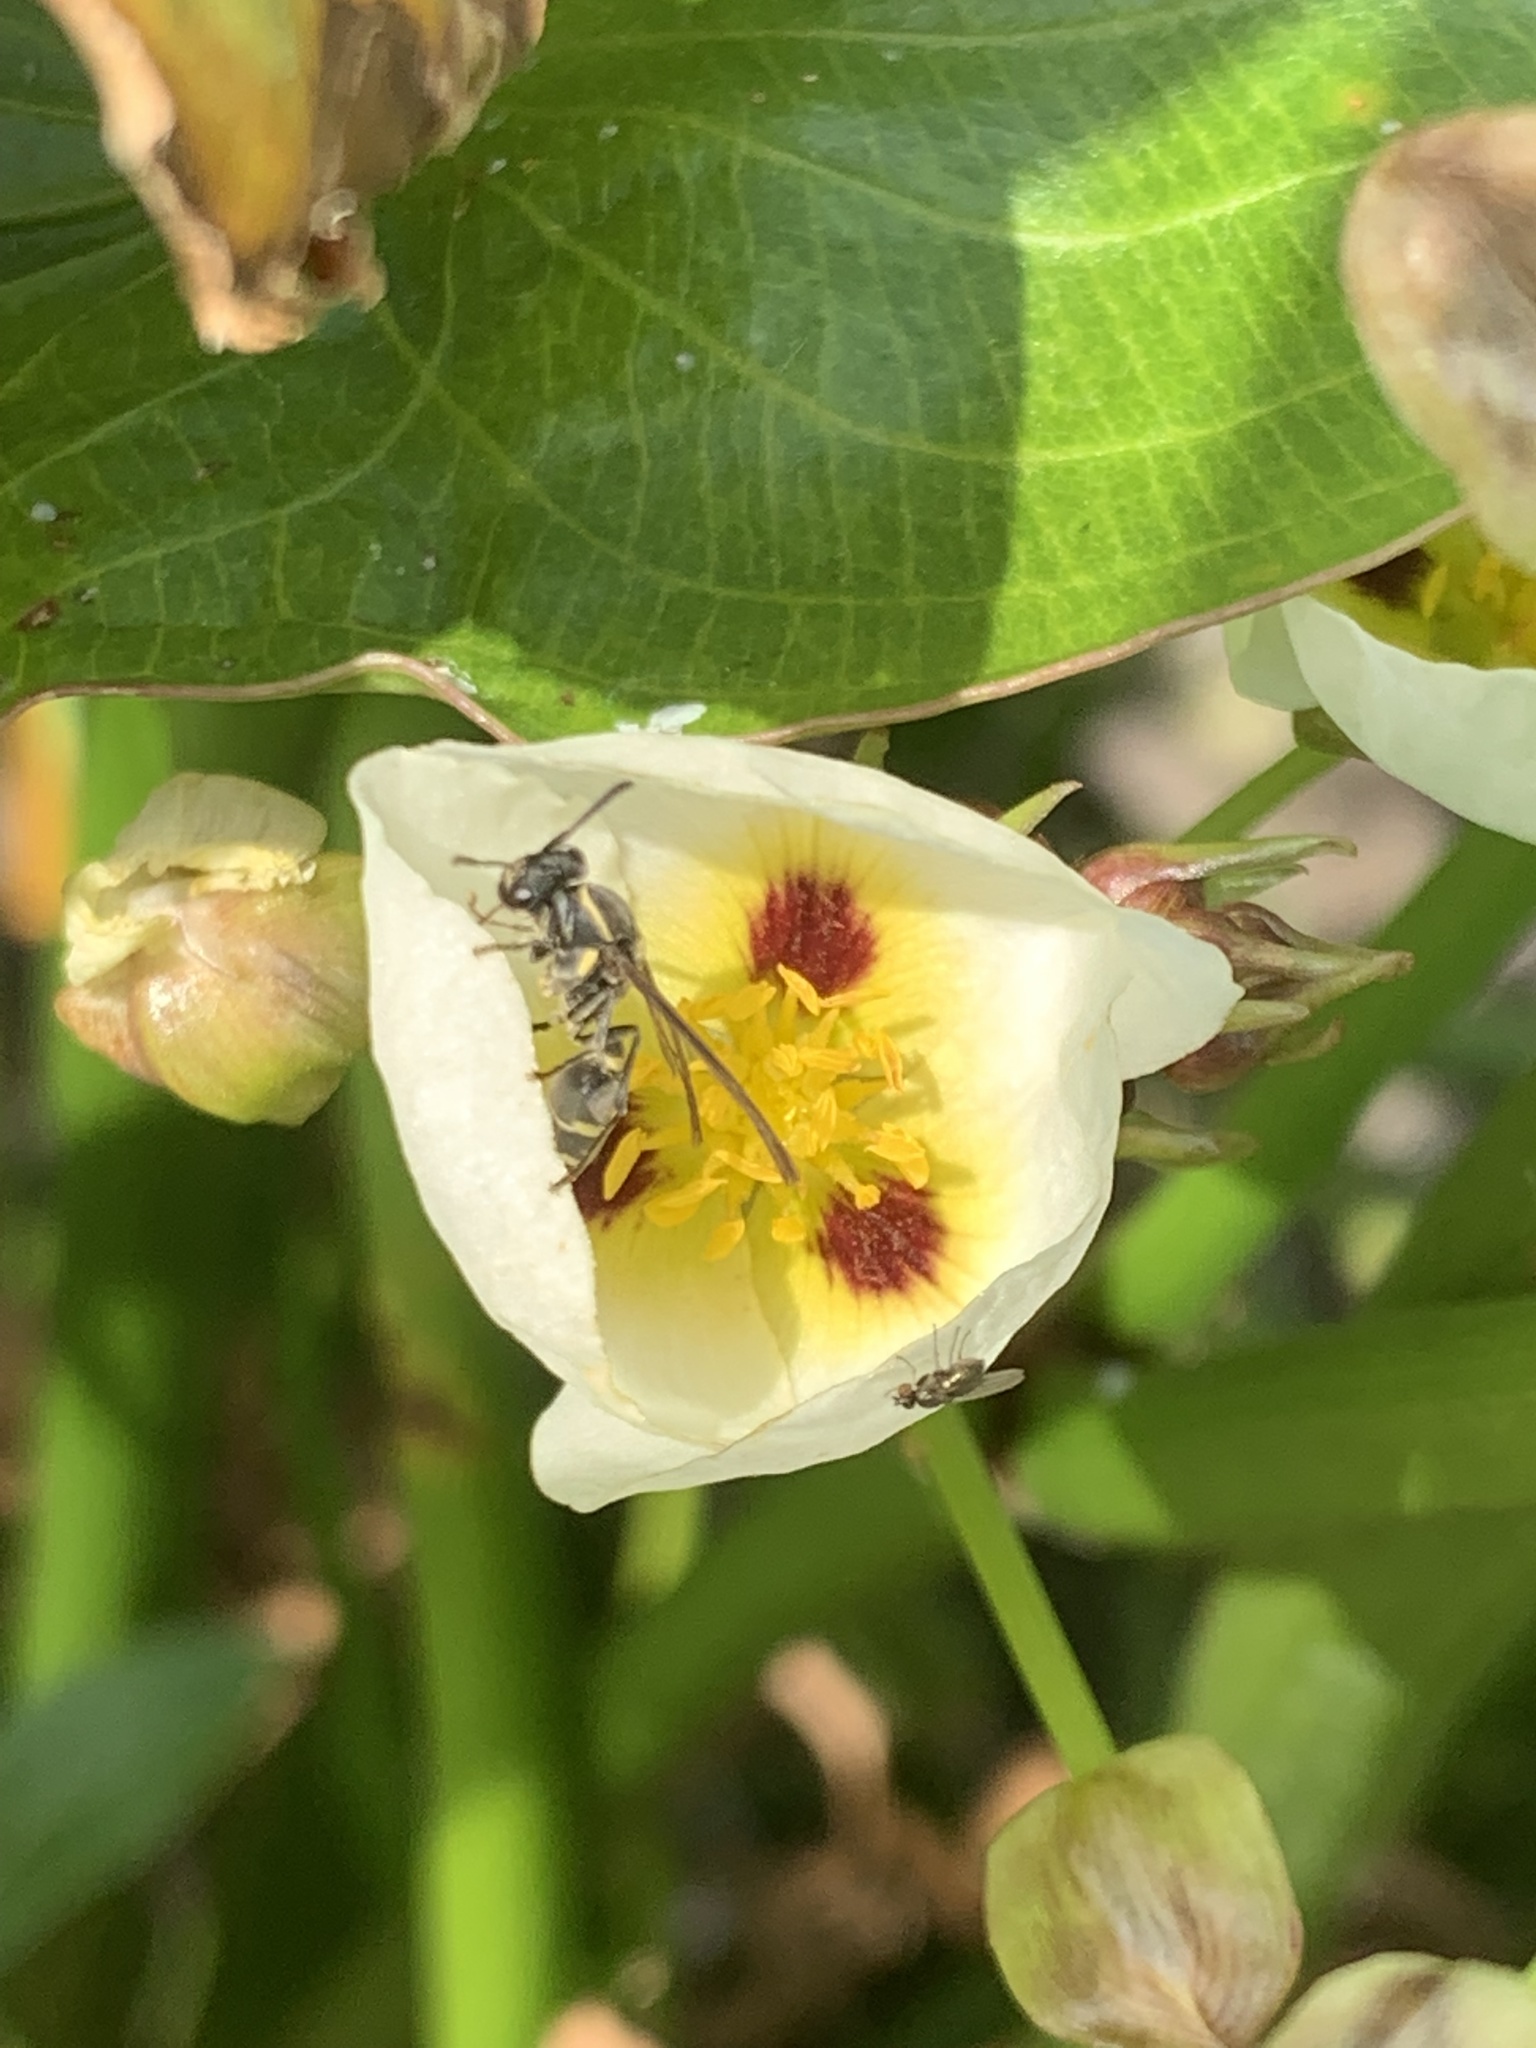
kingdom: Animalia
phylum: Arthropoda
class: Insecta
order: Hymenoptera
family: Eumenidae
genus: Polybia
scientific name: Polybia occidentalis
